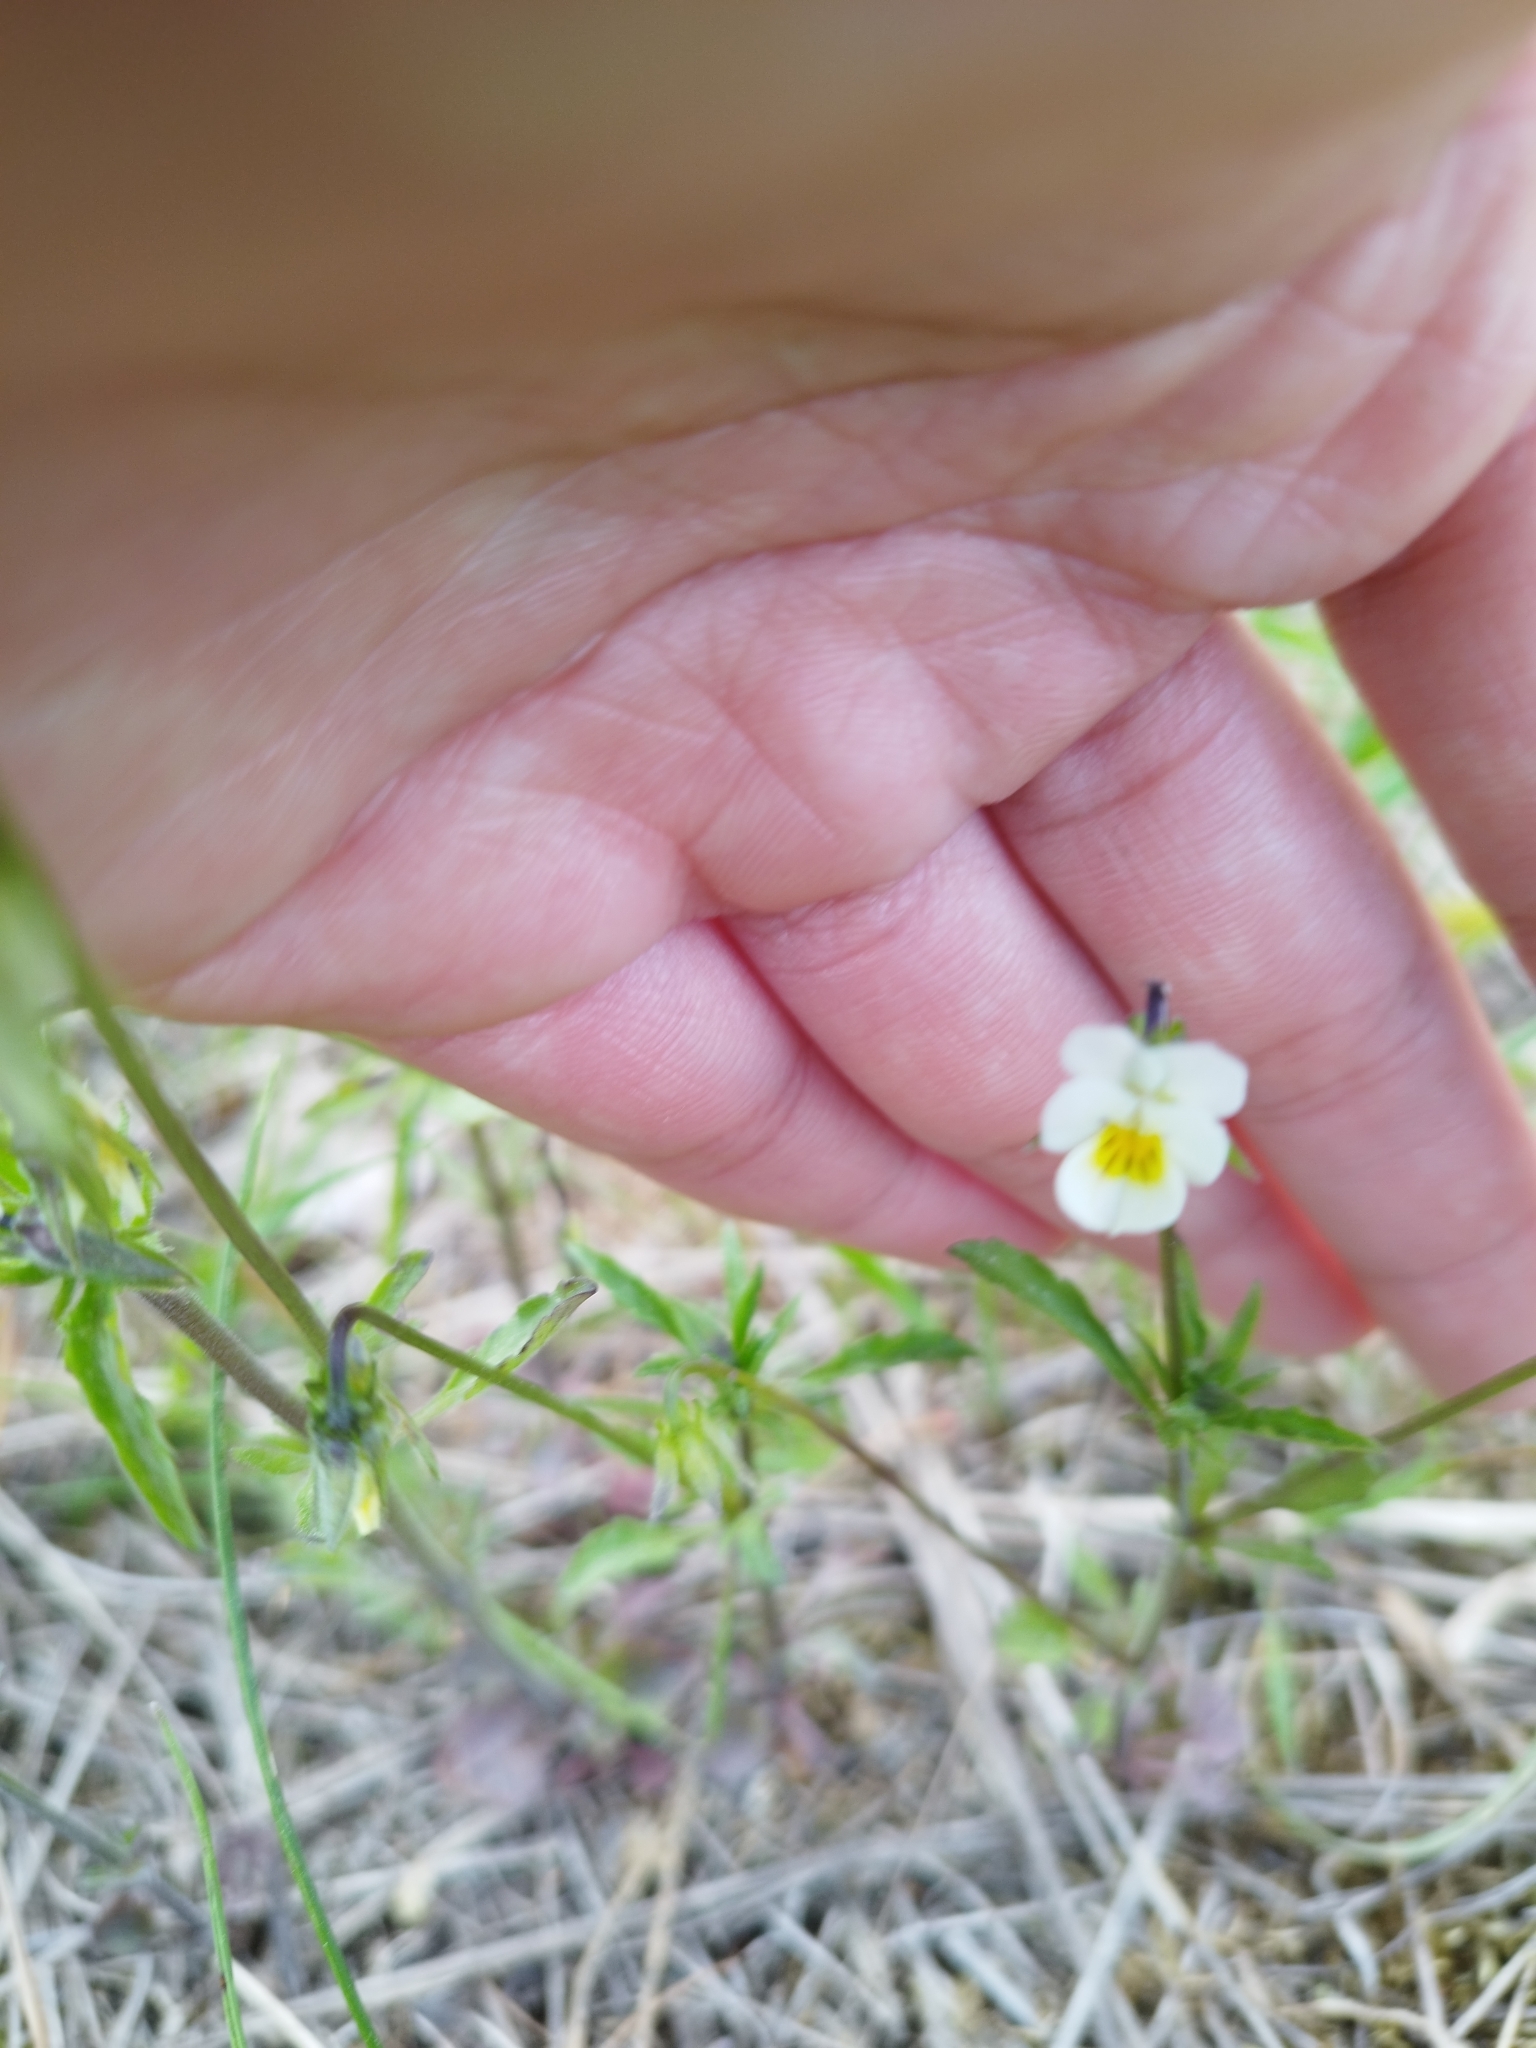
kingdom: Plantae
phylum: Tracheophyta
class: Magnoliopsida
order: Malpighiales
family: Violaceae
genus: Viola
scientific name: Viola arvensis
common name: Field pansy
